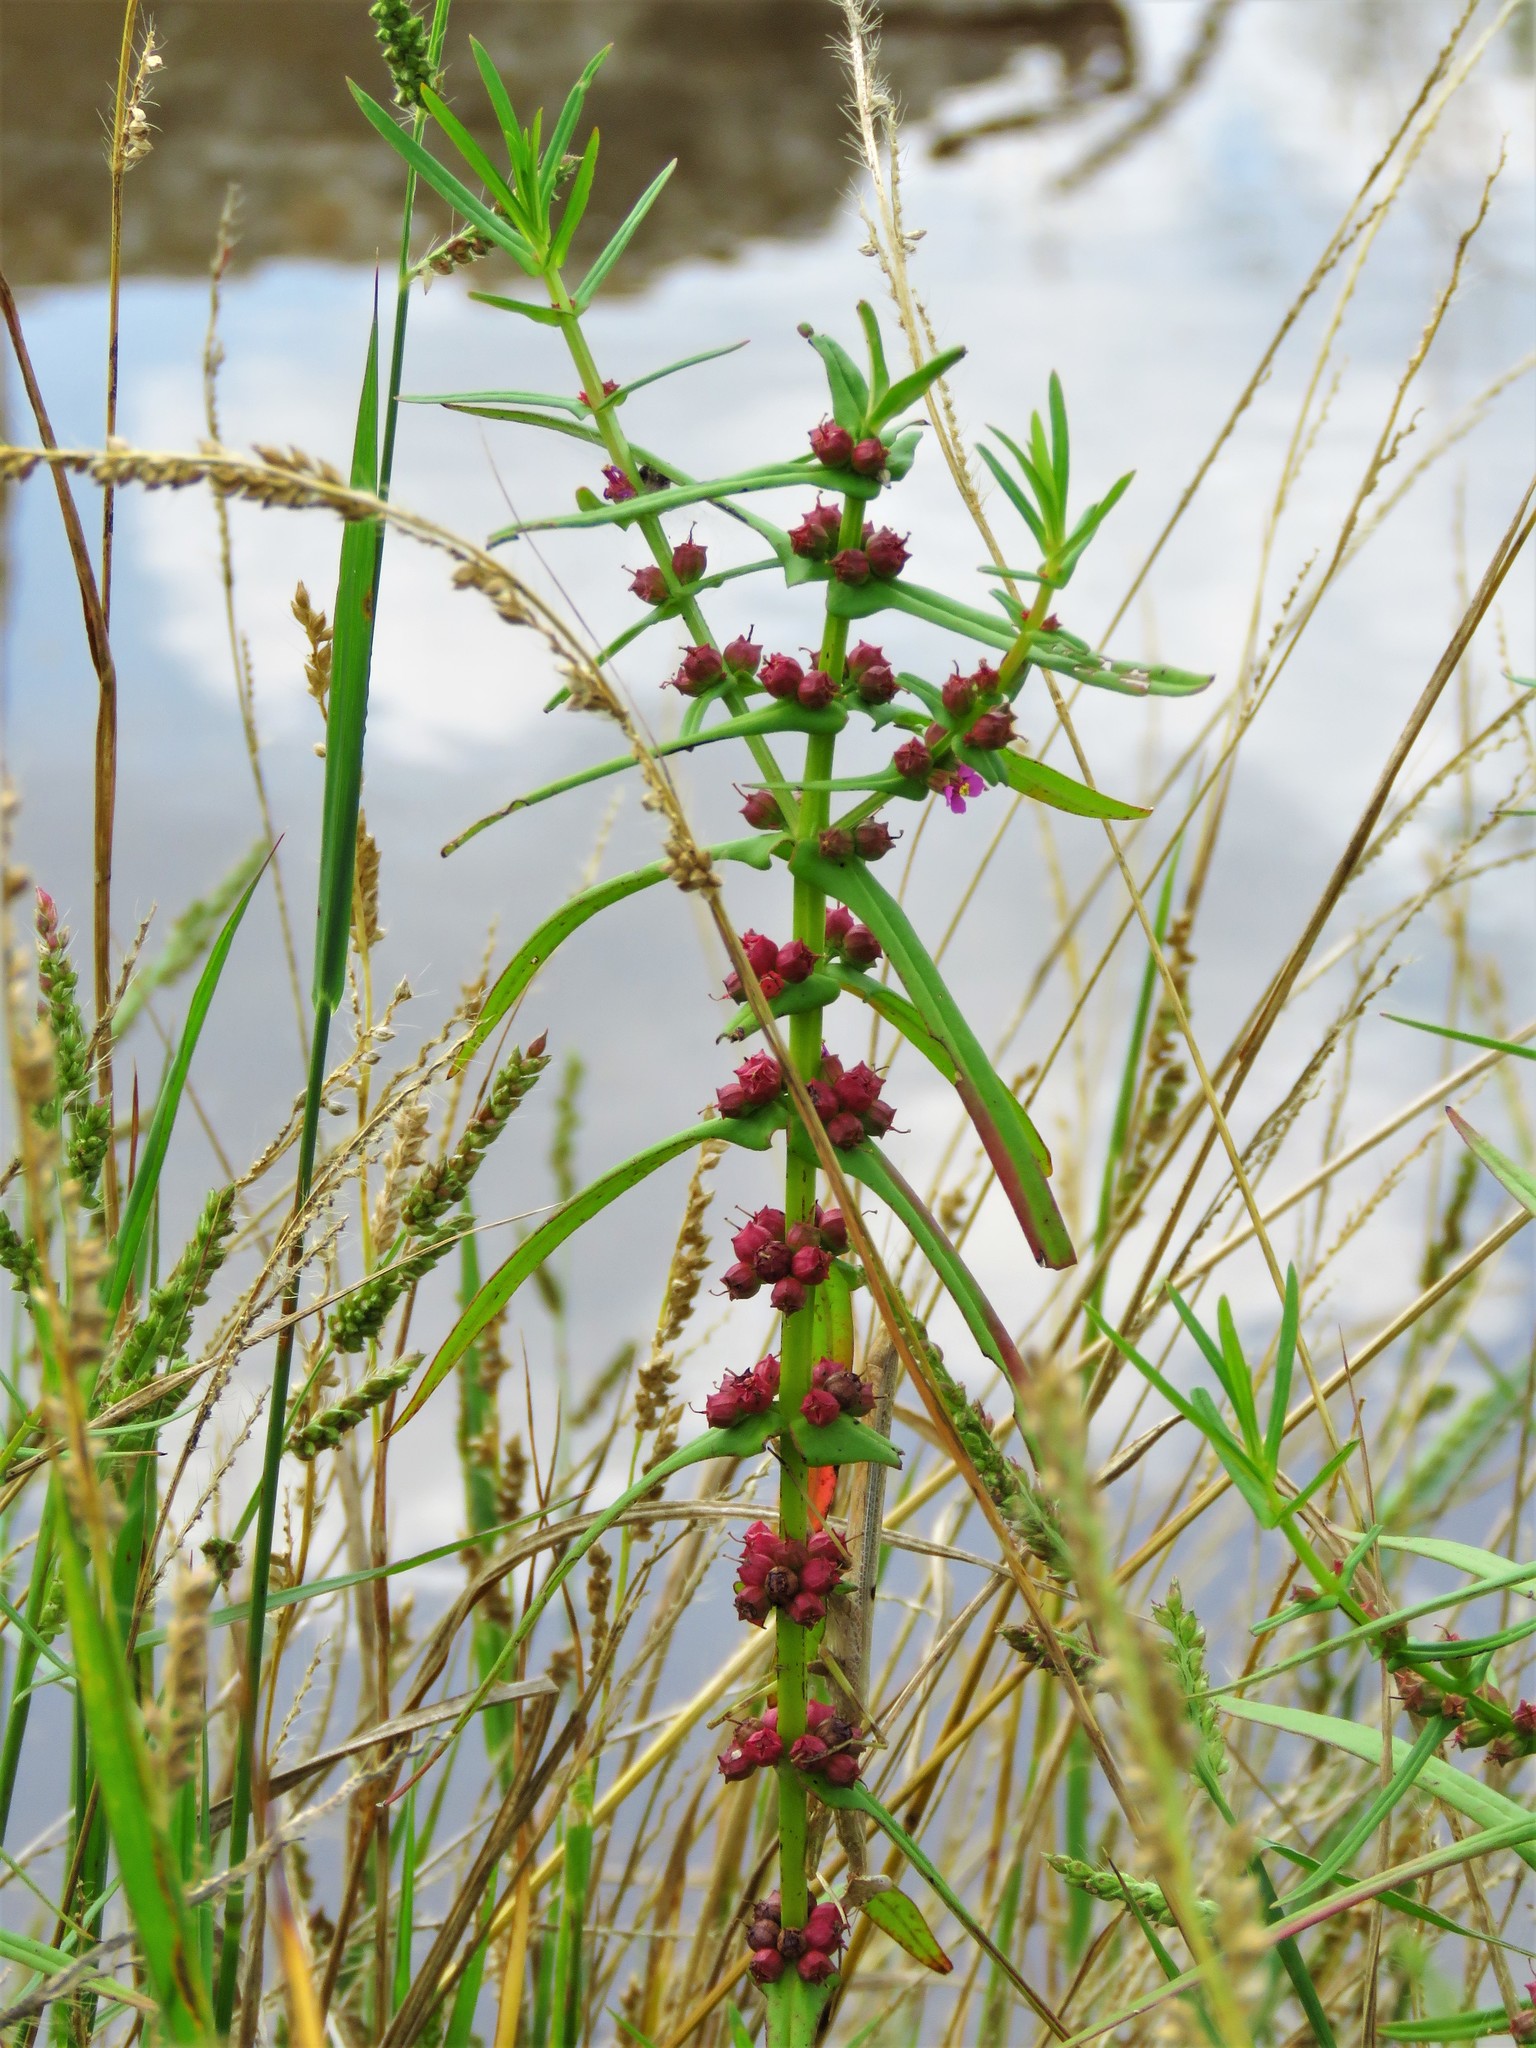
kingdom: Plantae
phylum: Tracheophyta
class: Magnoliopsida
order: Myrtales
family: Lythraceae
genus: Ammannia
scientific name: Ammannia coccinea
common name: Valley redstem
